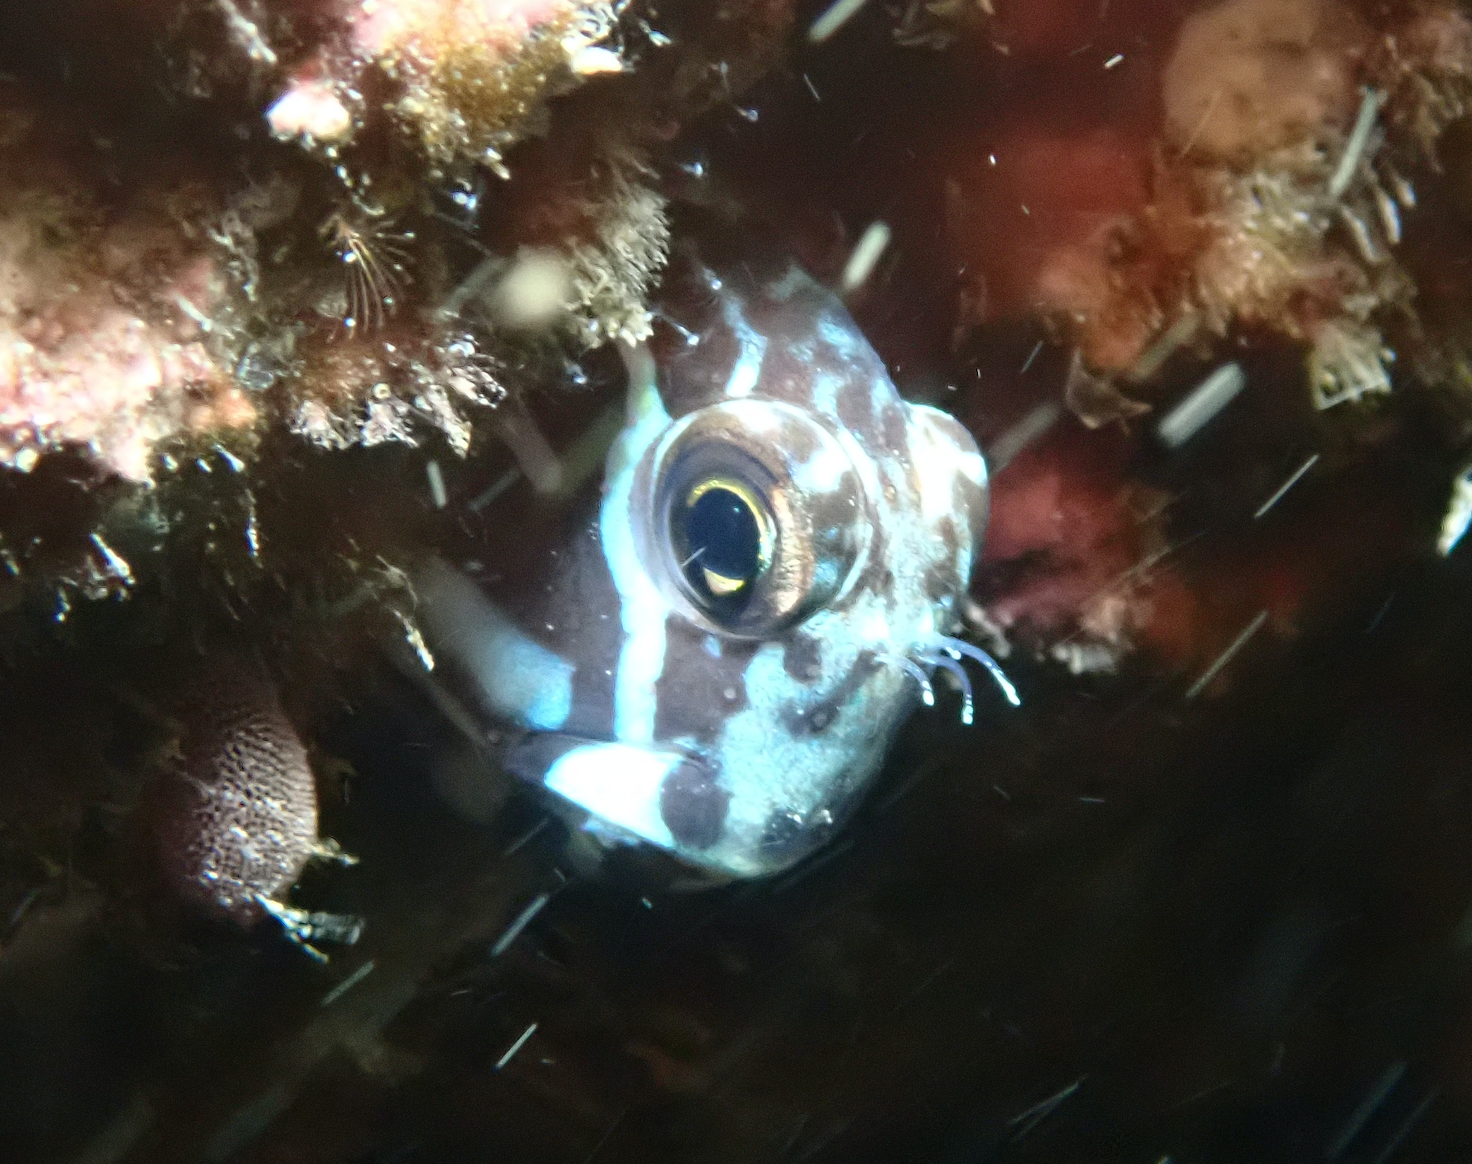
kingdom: Animalia
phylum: Chordata
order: Perciformes
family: Blenniidae
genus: Ecsenius
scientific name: Ecsenius namiyei
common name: Black comb-tooth
